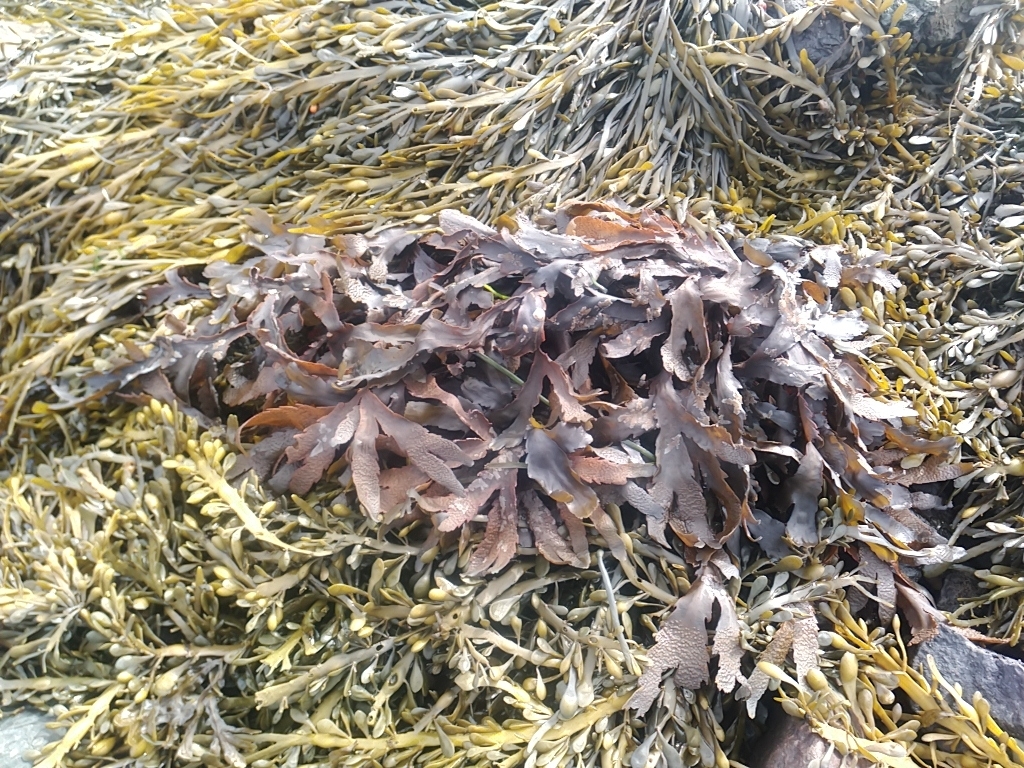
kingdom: Chromista
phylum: Ochrophyta
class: Phaeophyceae
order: Fucales
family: Fucaceae
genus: Fucus
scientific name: Fucus serratus
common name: Toothed wrack
